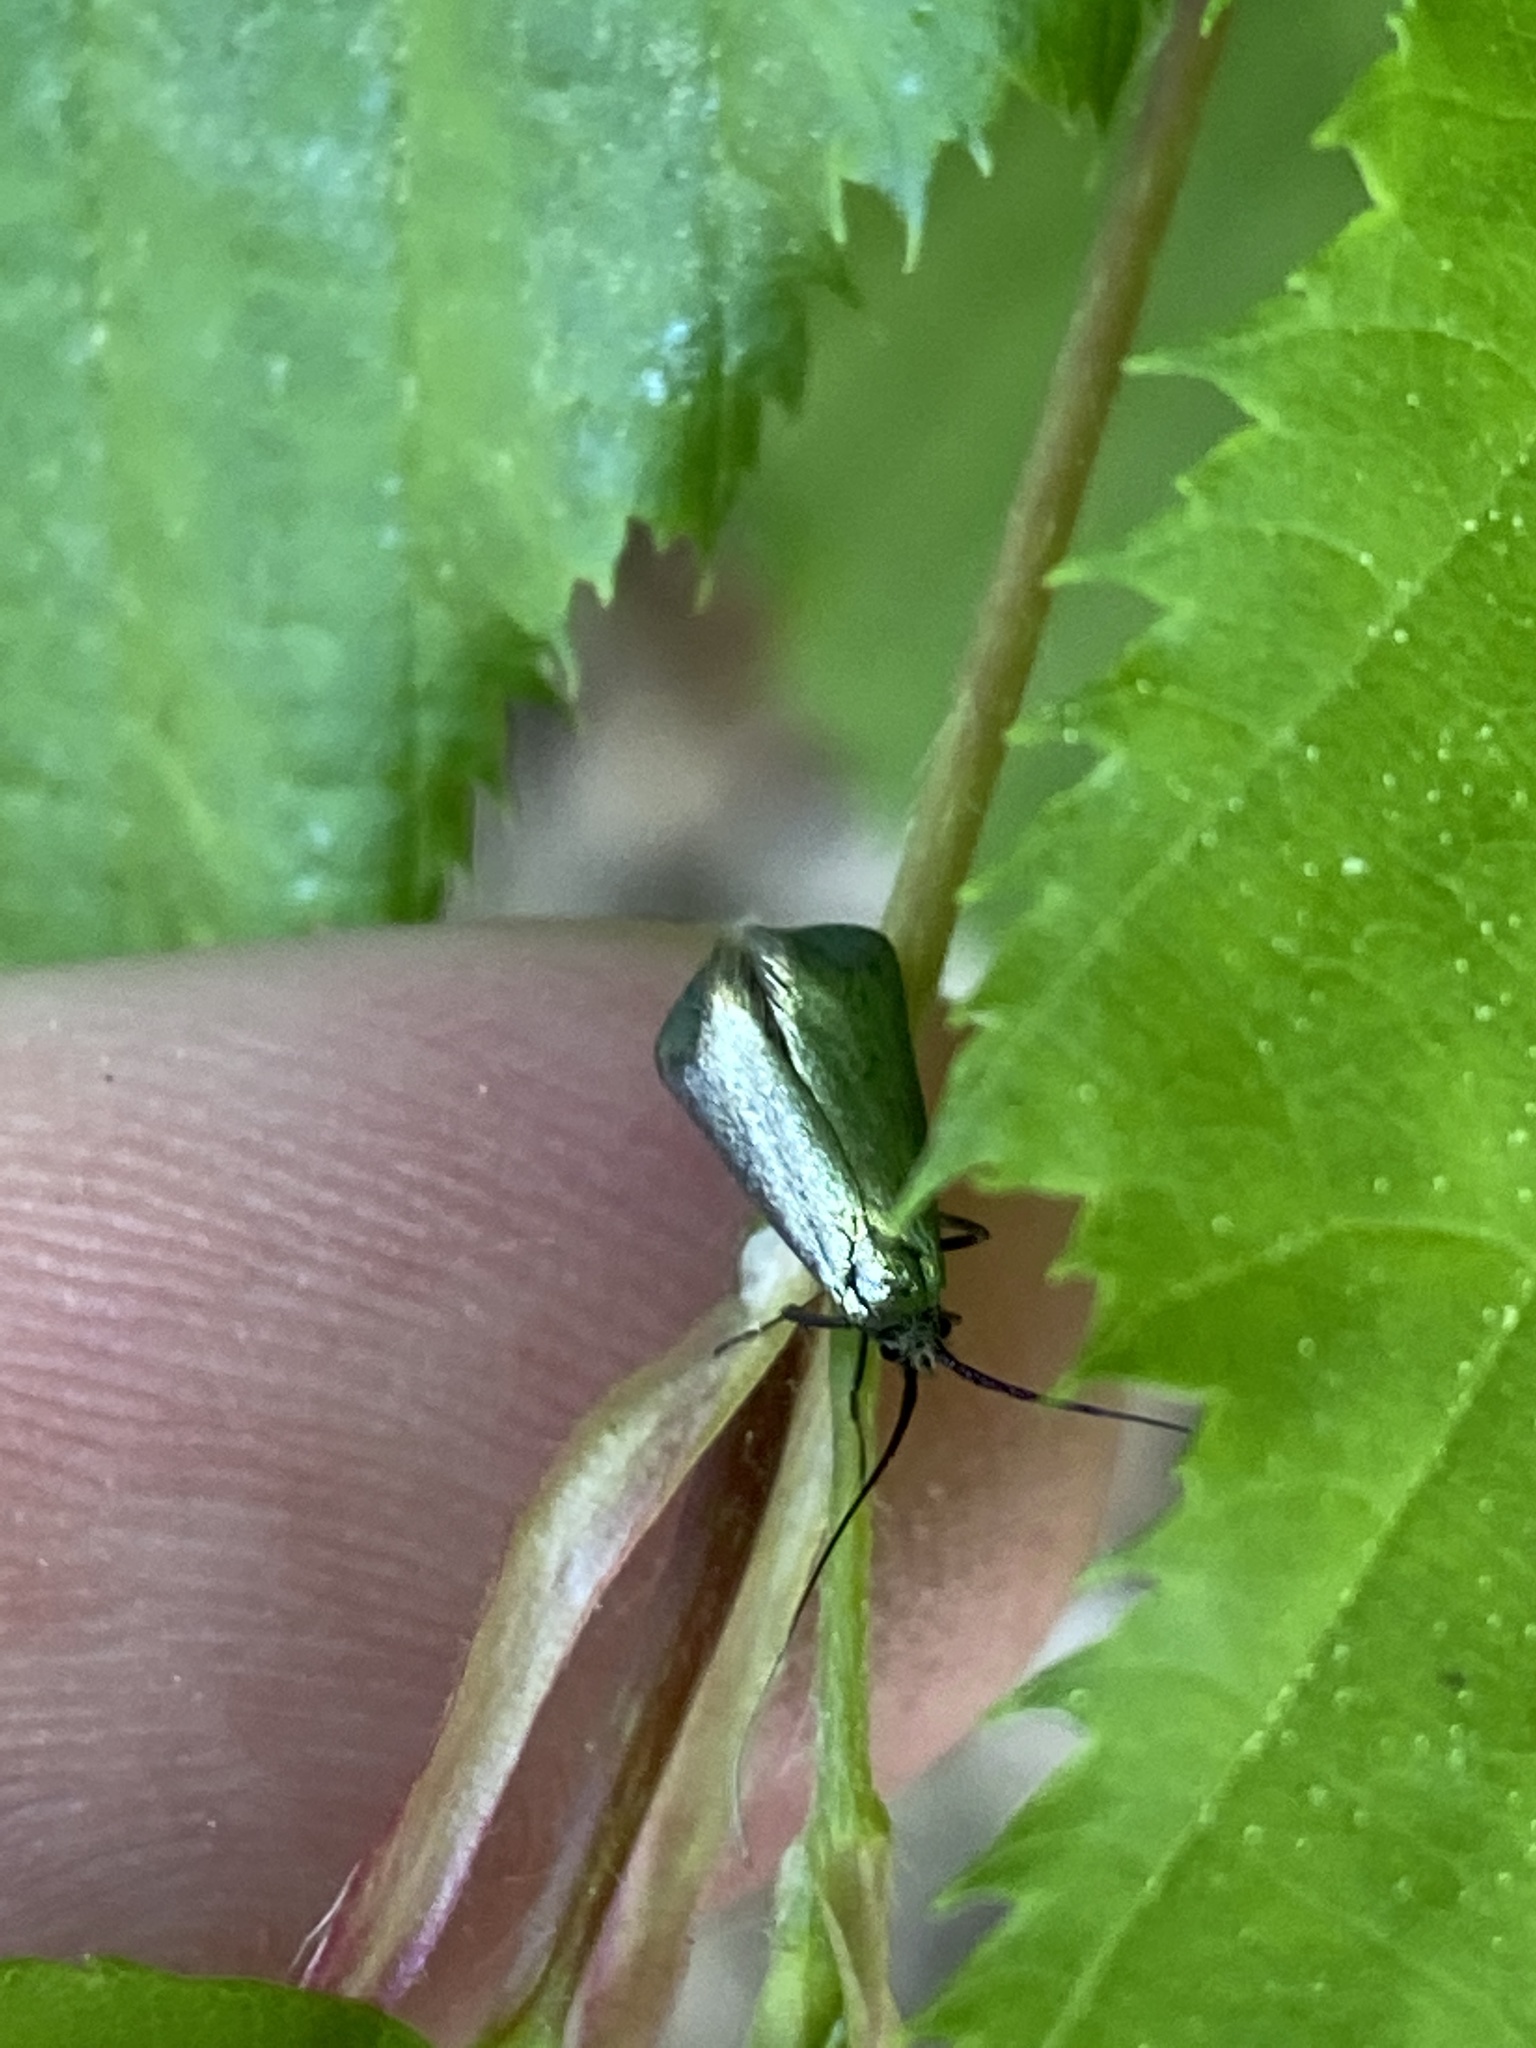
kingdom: Animalia
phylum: Arthropoda
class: Insecta
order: Lepidoptera
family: Adelidae
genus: Adela
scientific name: Adela viridella
